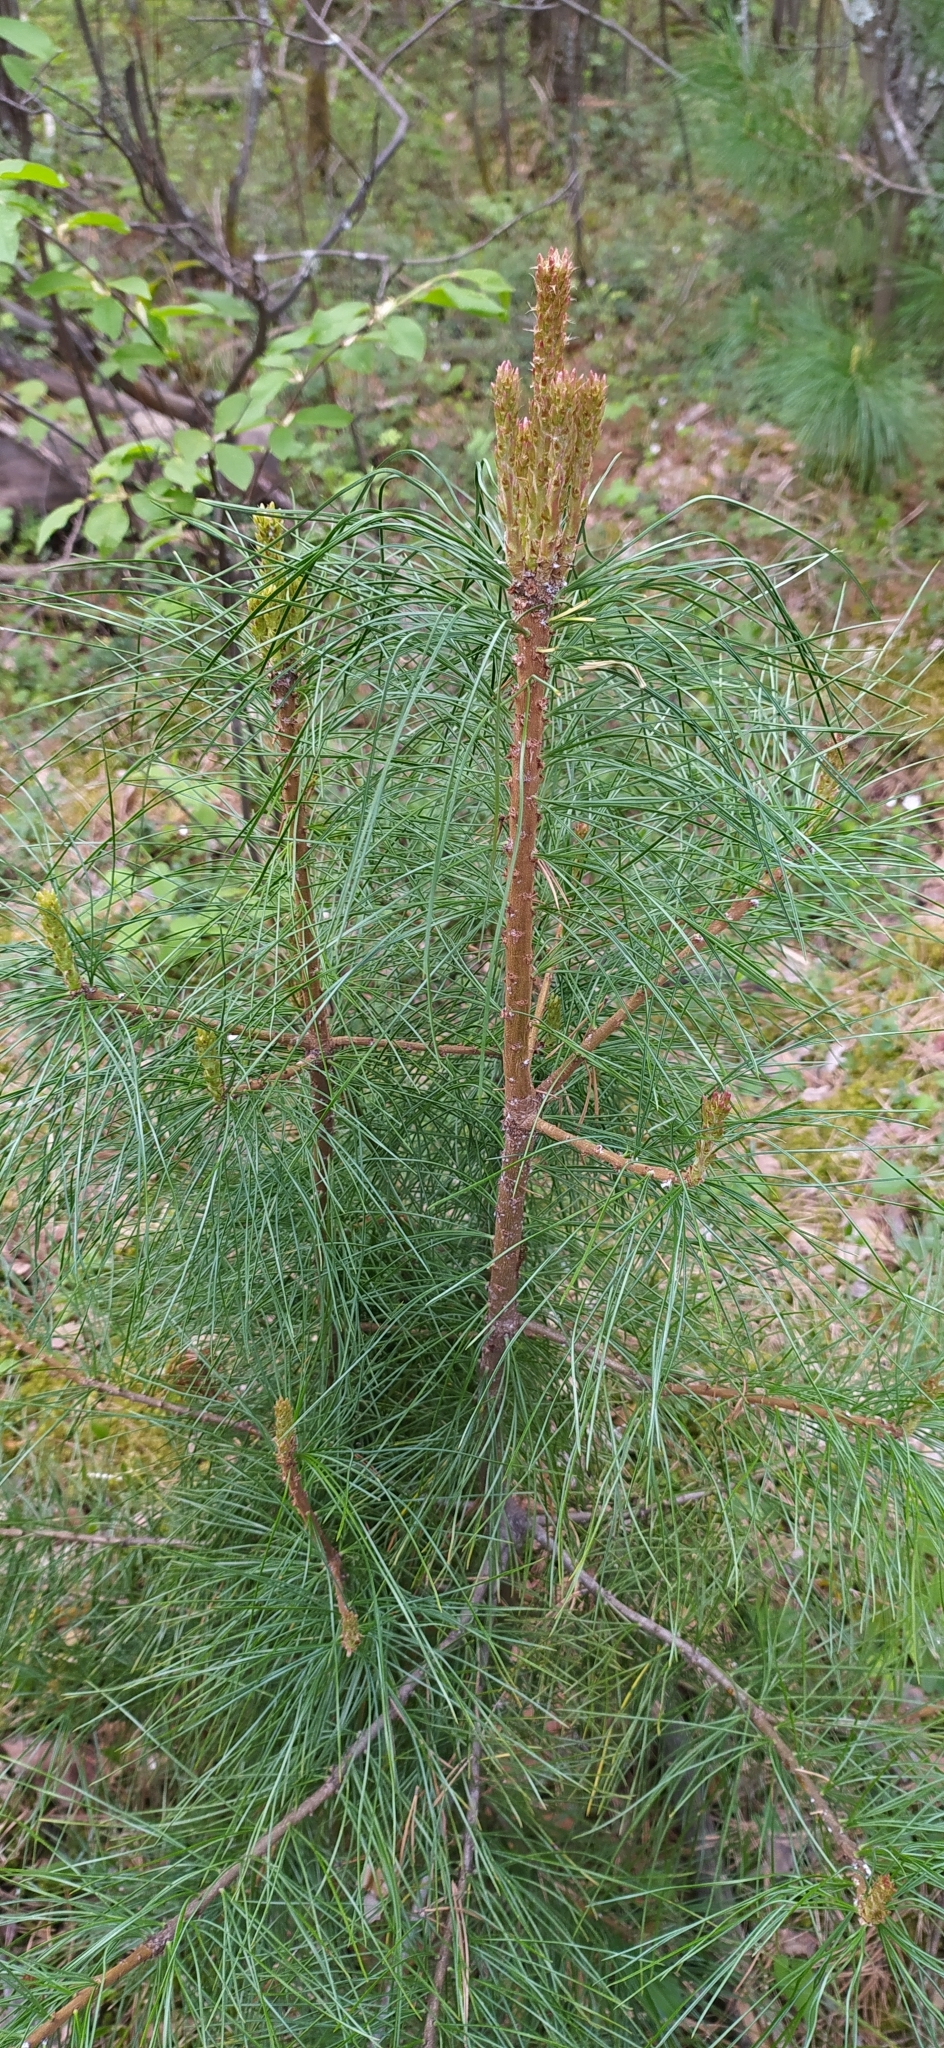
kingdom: Plantae
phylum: Tracheophyta
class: Pinopsida
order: Pinales
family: Pinaceae
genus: Pinus
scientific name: Pinus sibirica
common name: Siberian pine
